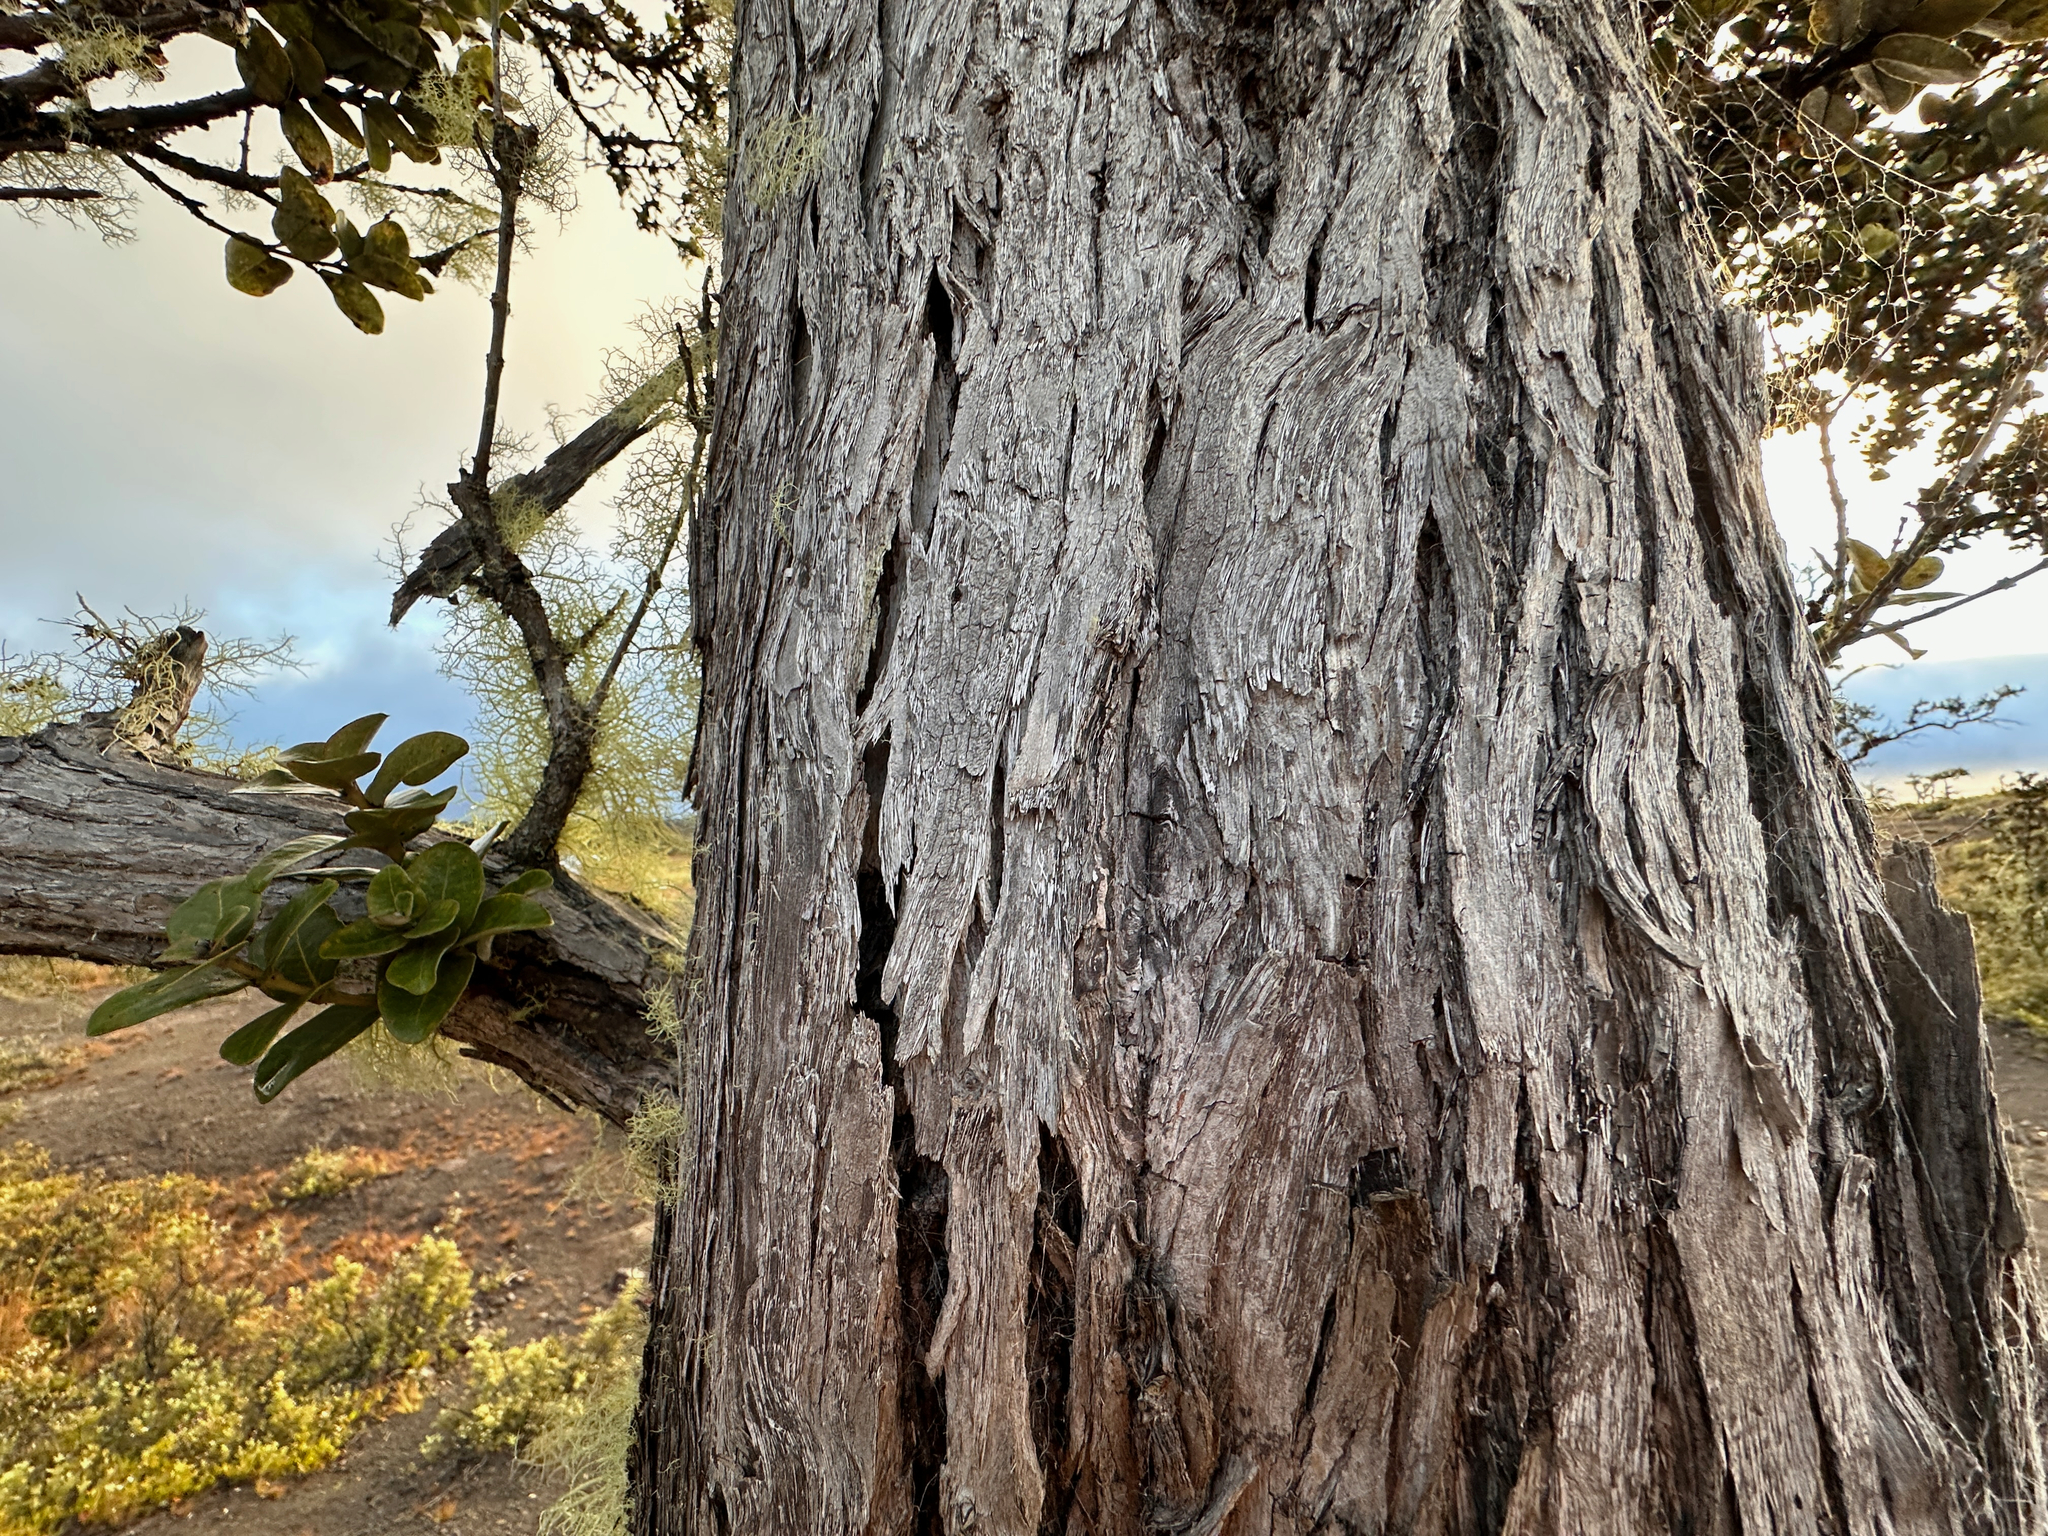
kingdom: Plantae
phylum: Tracheophyta
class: Magnoliopsida
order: Myrtales
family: Myrtaceae
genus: Metrosideros
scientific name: Metrosideros polymorpha
